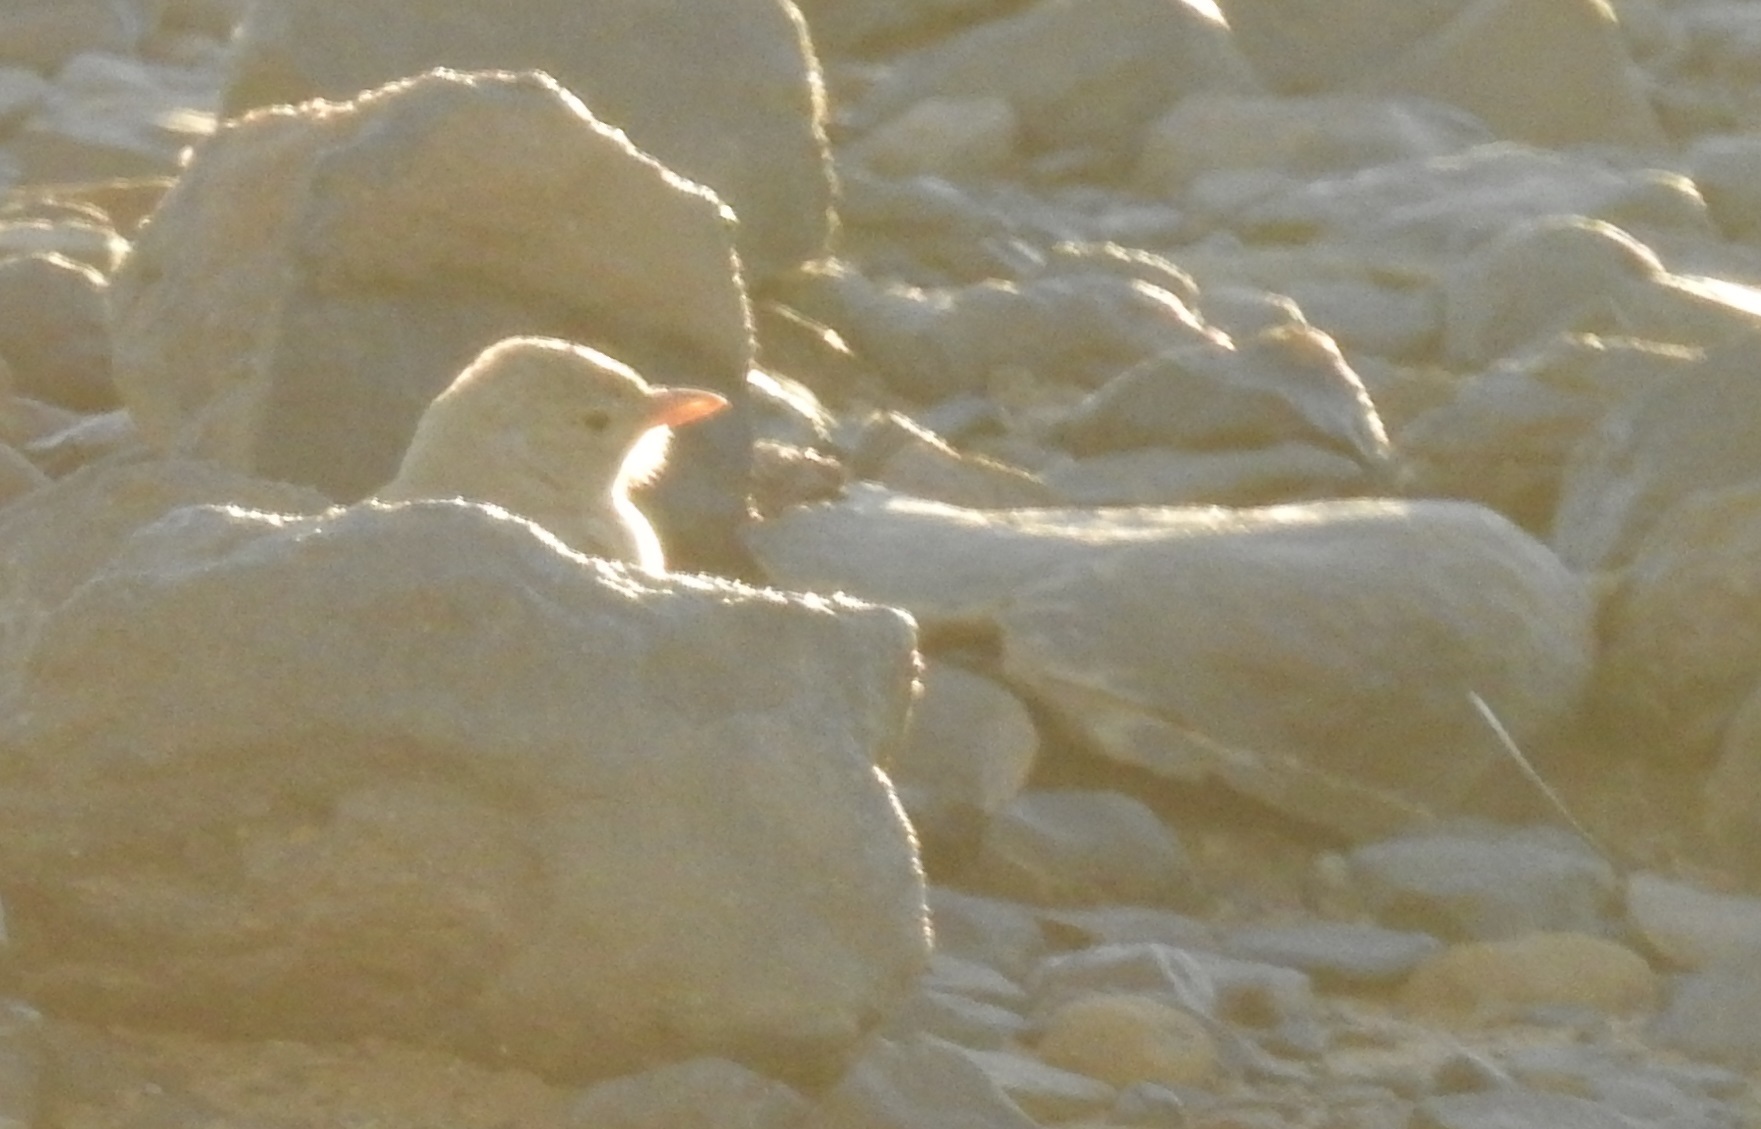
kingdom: Animalia
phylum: Chordata
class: Aves
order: Passeriformes
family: Alaudidae
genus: Ammomanes
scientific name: Ammomanes deserti
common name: Desert lark
